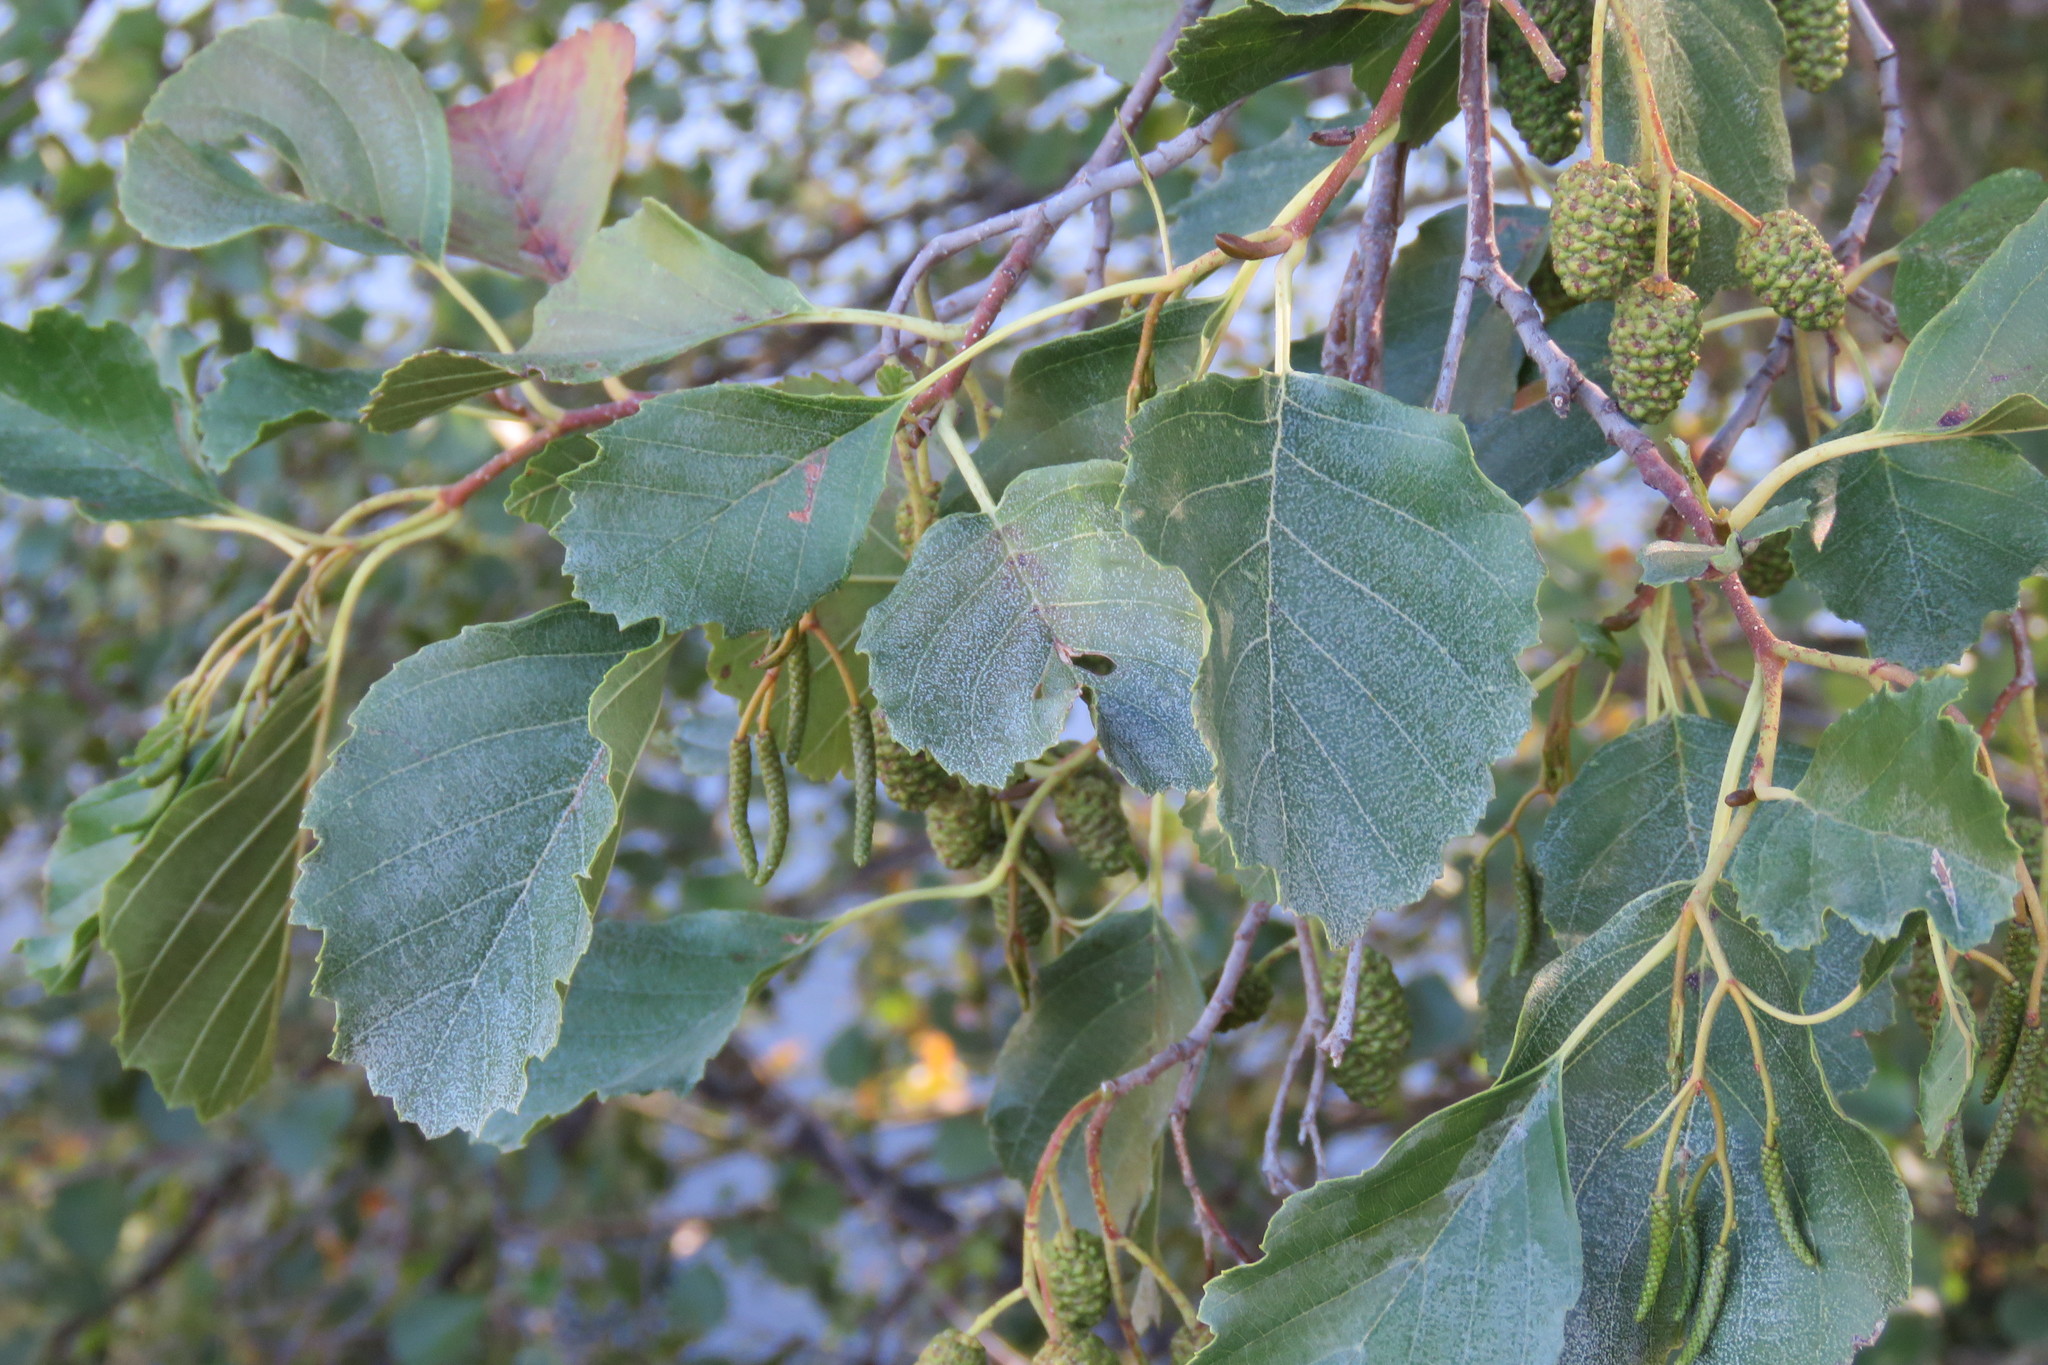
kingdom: Plantae
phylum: Tracheophyta
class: Magnoliopsida
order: Fagales
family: Betulaceae
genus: Alnus
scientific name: Alnus lusitanica
